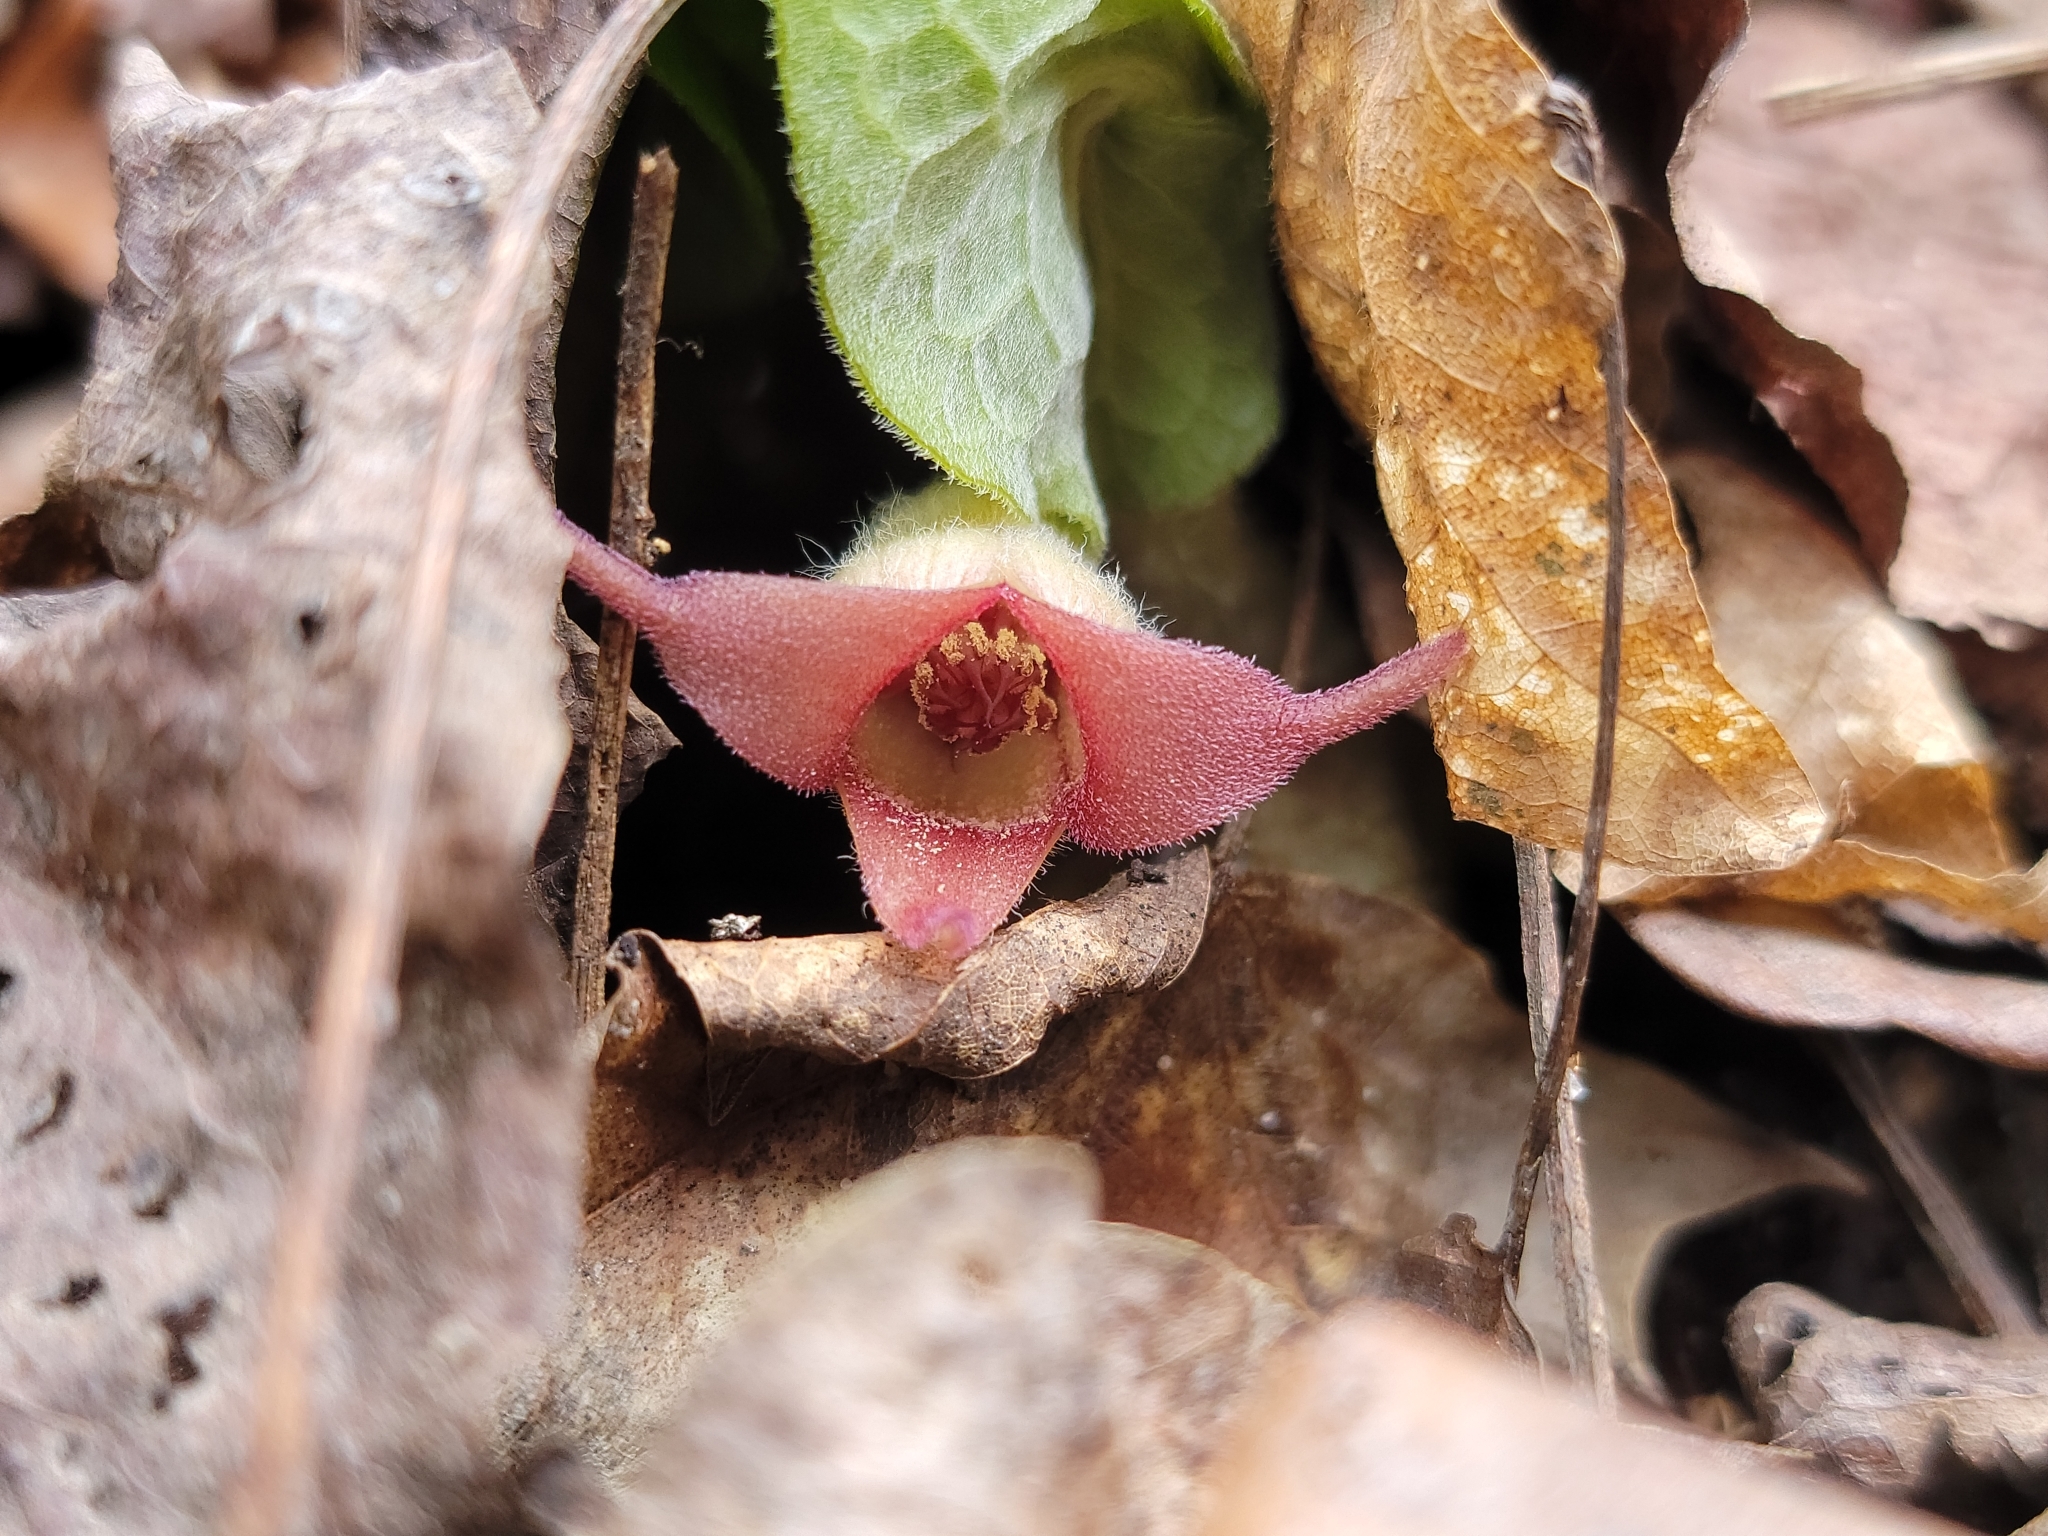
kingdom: Plantae
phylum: Tracheophyta
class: Magnoliopsida
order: Piperales
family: Aristolochiaceae
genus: Asarum
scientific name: Asarum canadense
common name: Wild ginger
